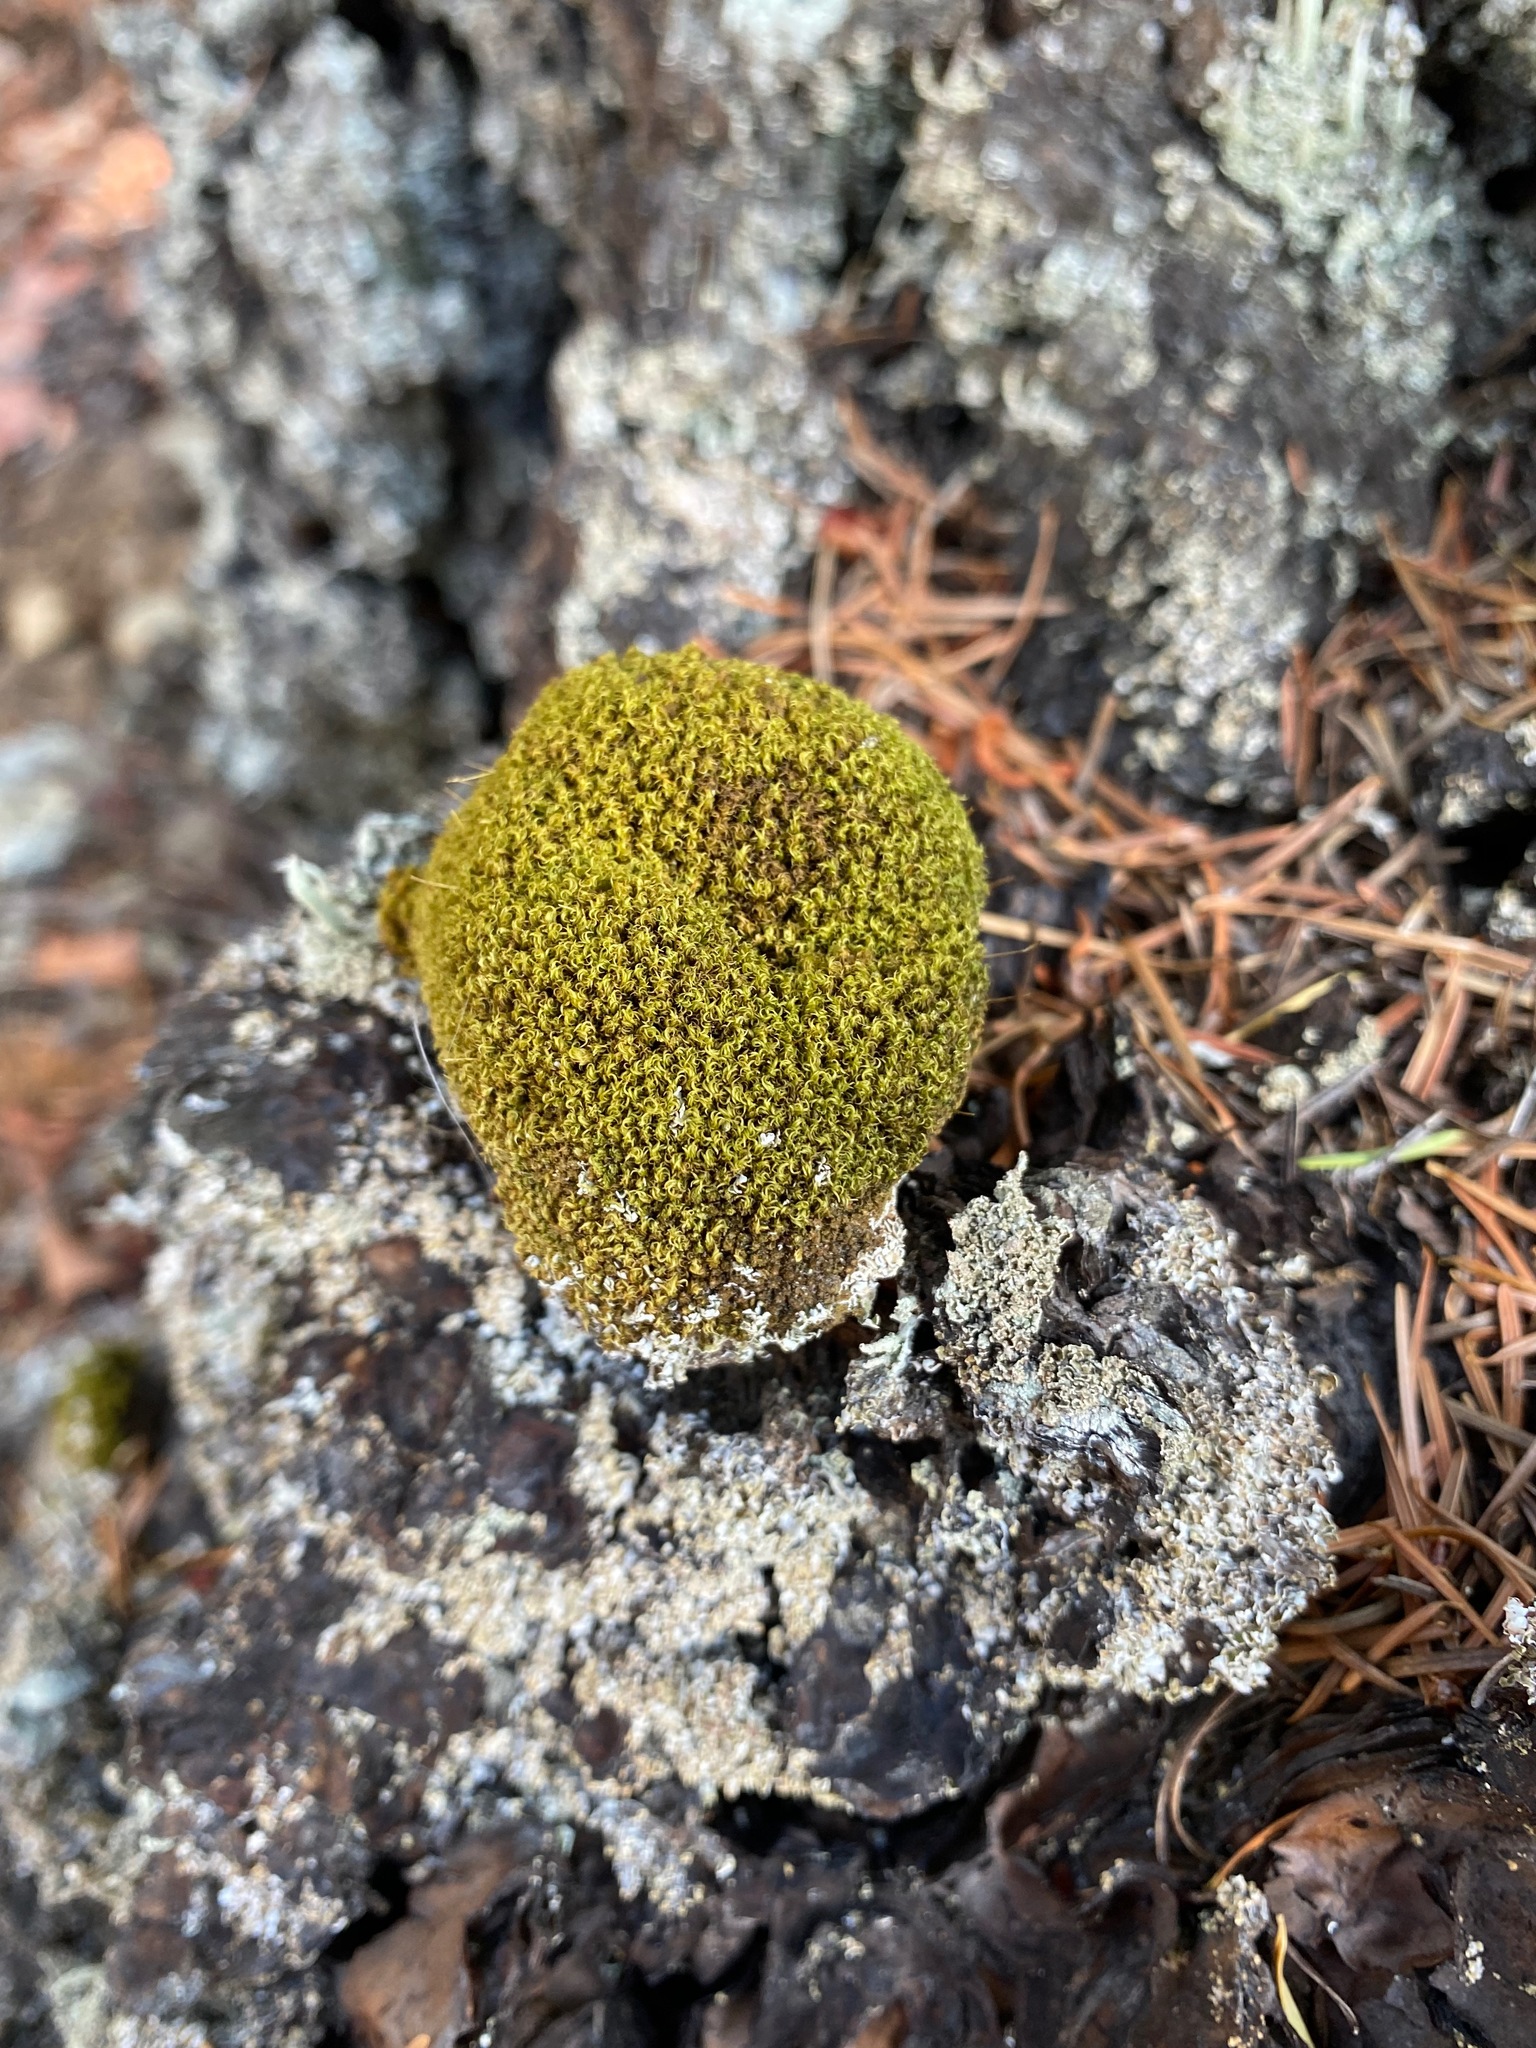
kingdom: Plantae
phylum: Bryophyta
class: Bryopsida
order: Dicranales
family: Rhabdoweisiaceae
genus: Dicranoweisia
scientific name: Dicranoweisia cirrata
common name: Common pincushion
